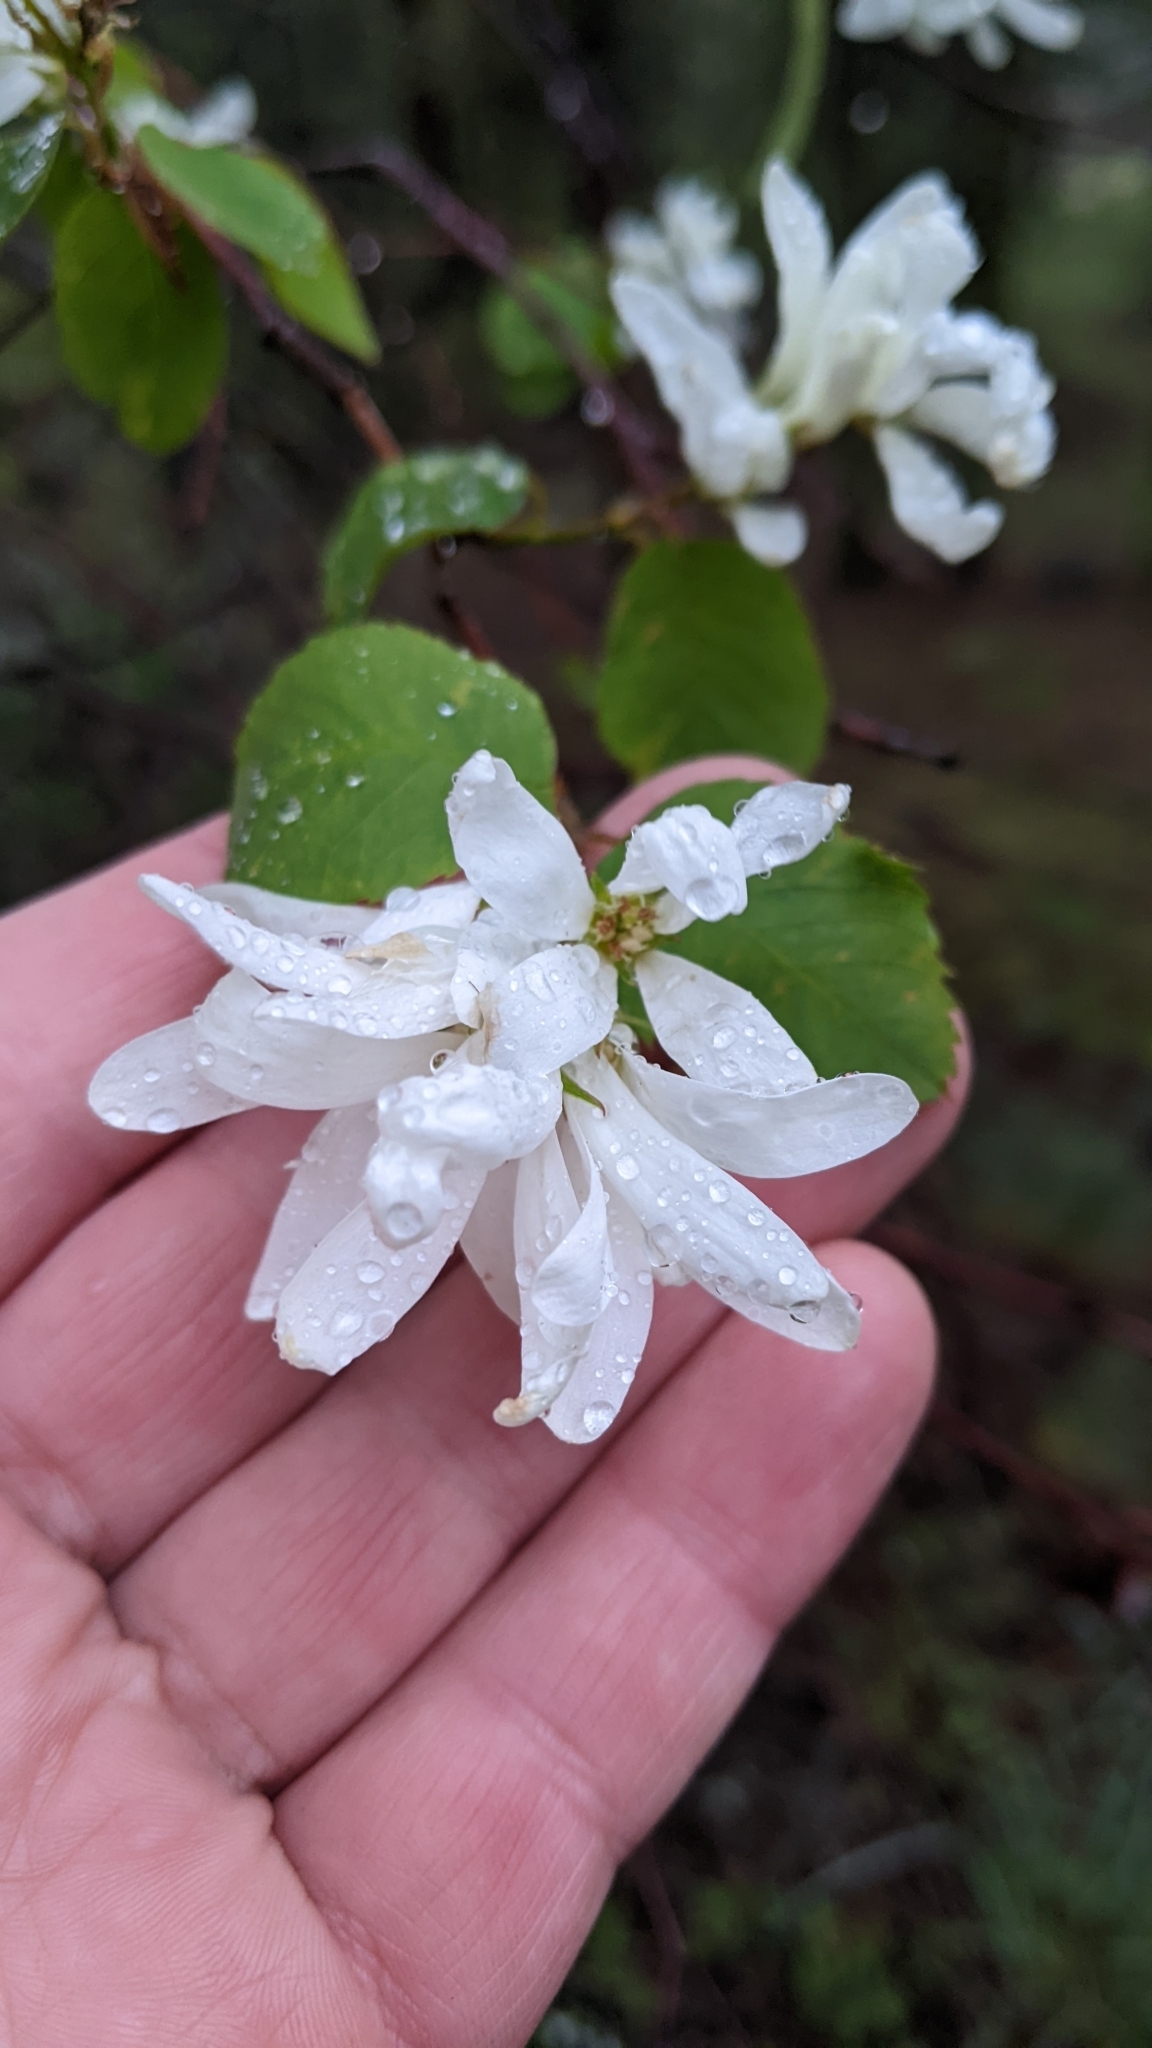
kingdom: Plantae
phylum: Tracheophyta
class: Magnoliopsida
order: Rosales
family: Rosaceae
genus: Amelanchier
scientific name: Amelanchier alnifolia
